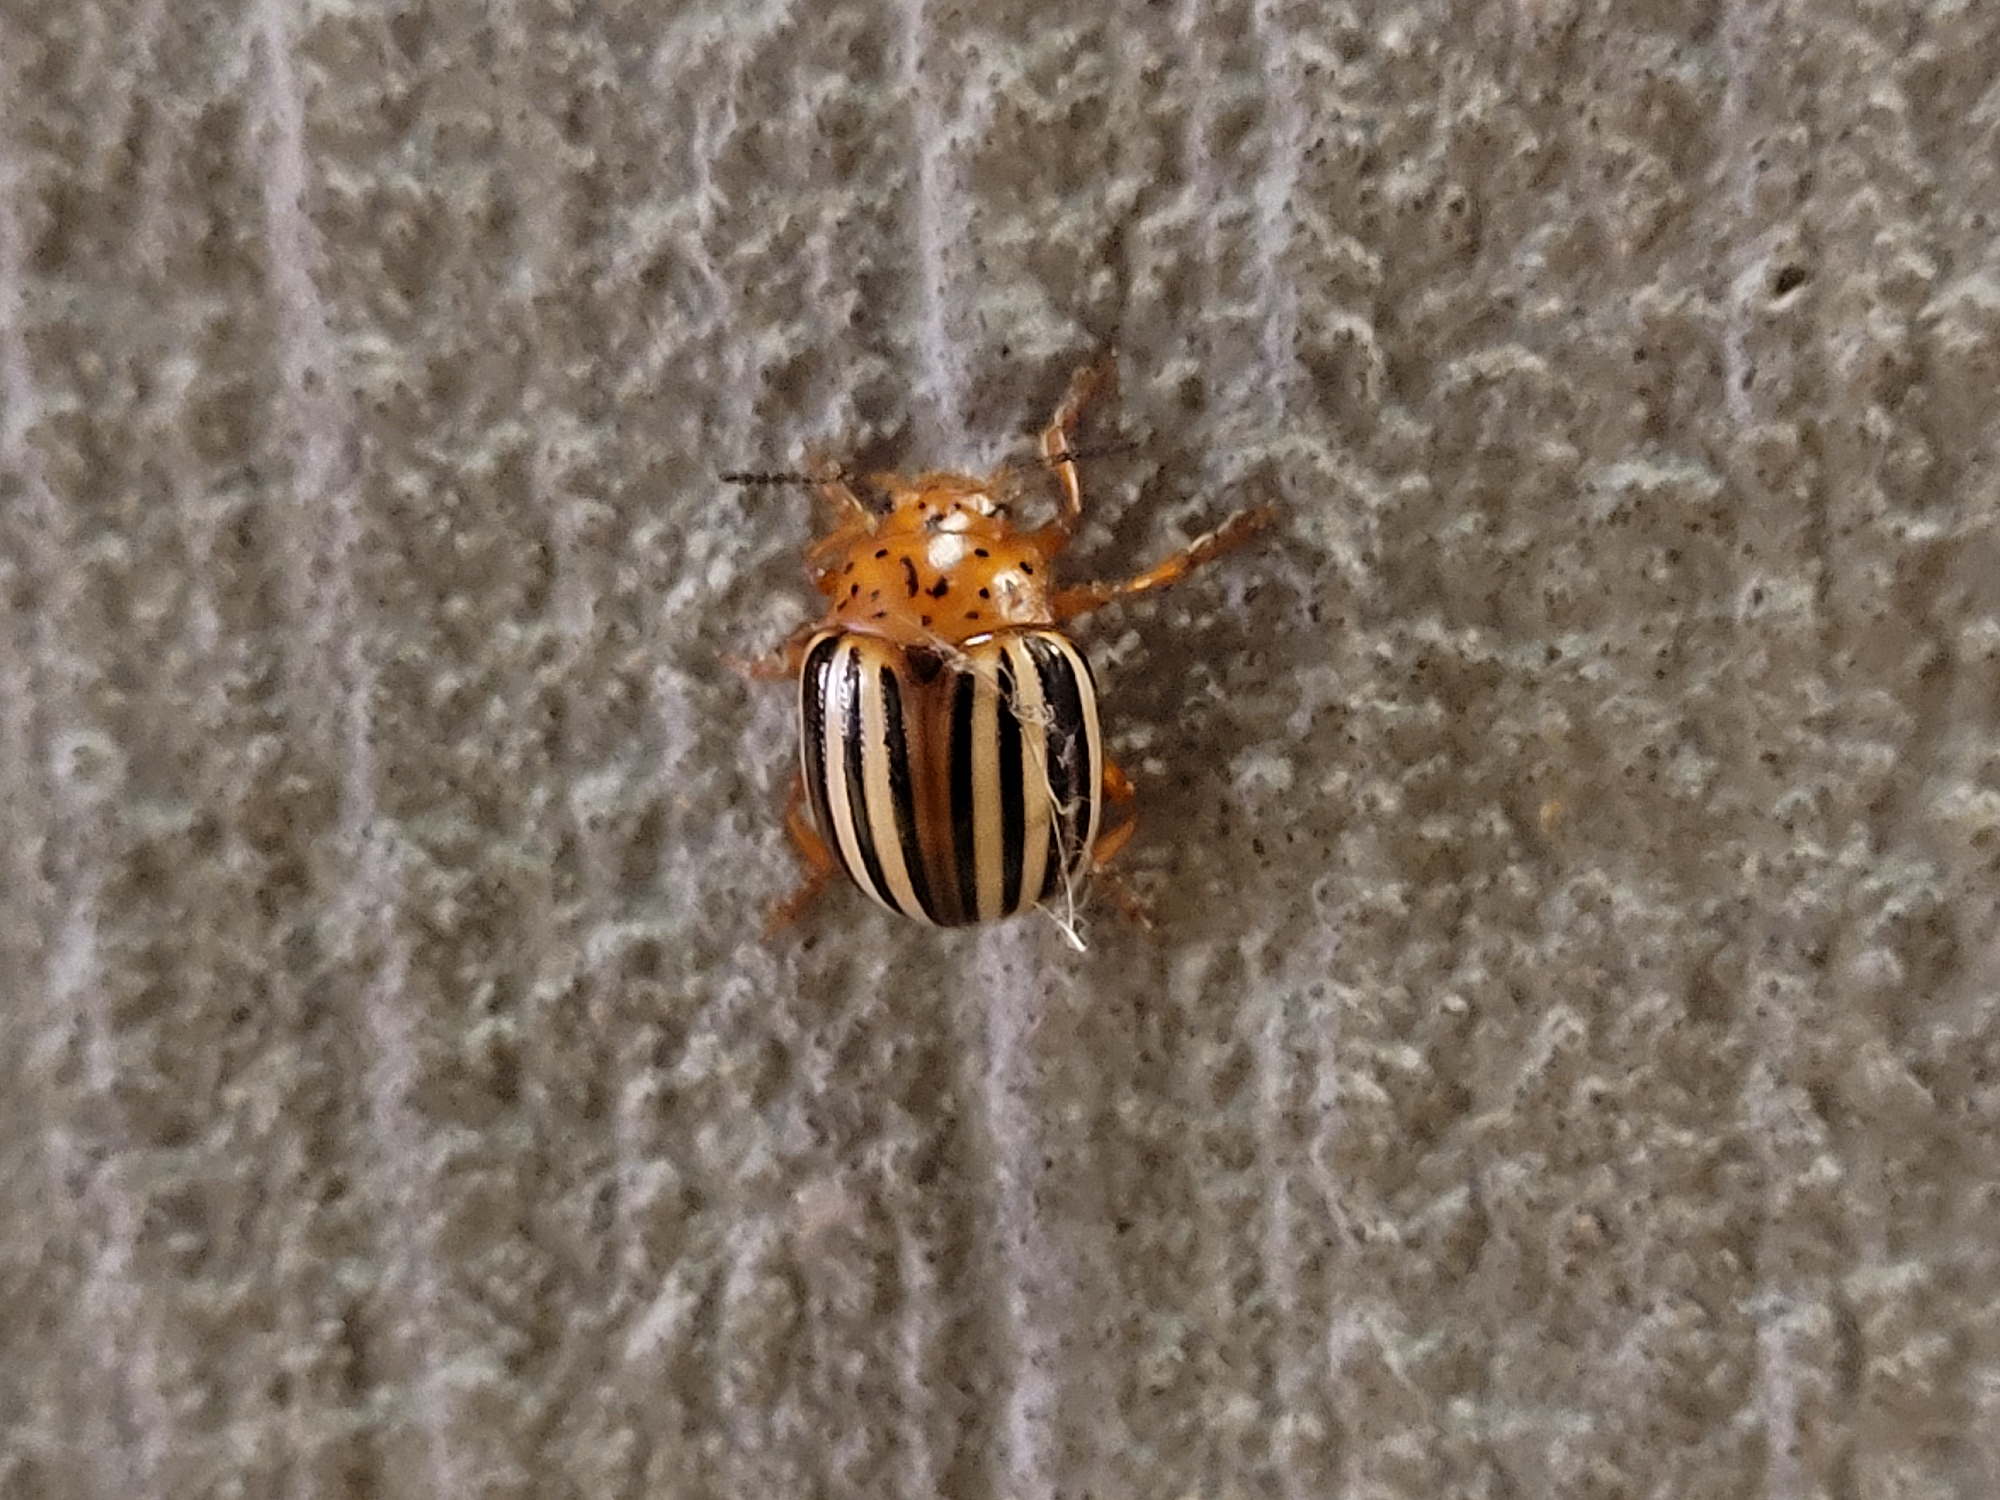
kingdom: Animalia
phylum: Arthropoda
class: Insecta
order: Coleoptera
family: Chrysomelidae
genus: Leptinotarsa
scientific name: Leptinotarsa juncta
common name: False potato beetle
